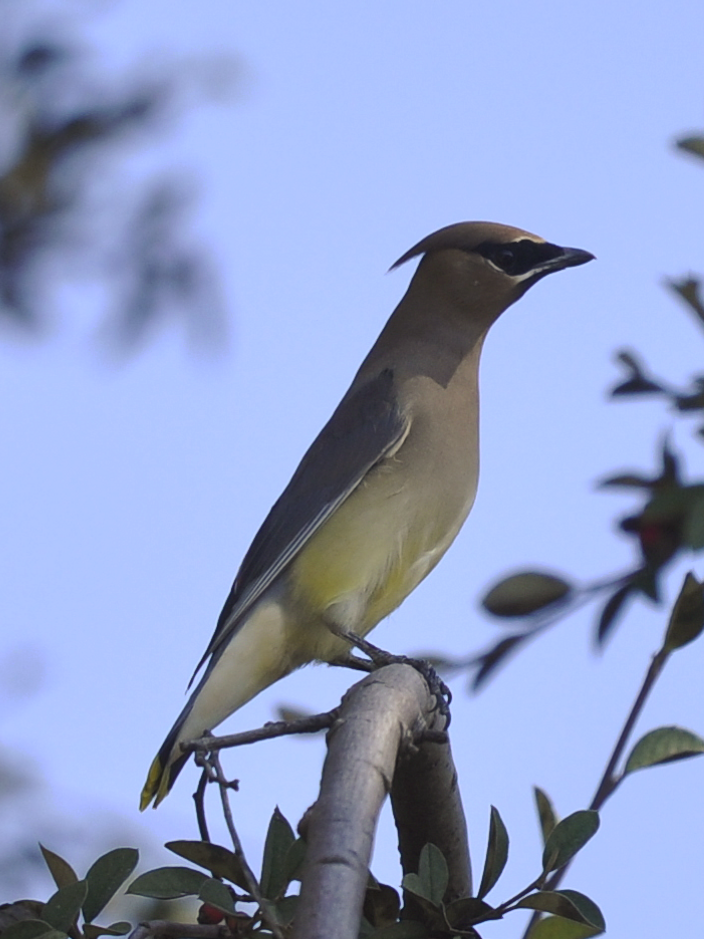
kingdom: Animalia
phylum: Chordata
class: Aves
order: Passeriformes
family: Bombycillidae
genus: Bombycilla
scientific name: Bombycilla cedrorum
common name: Cedar waxwing
